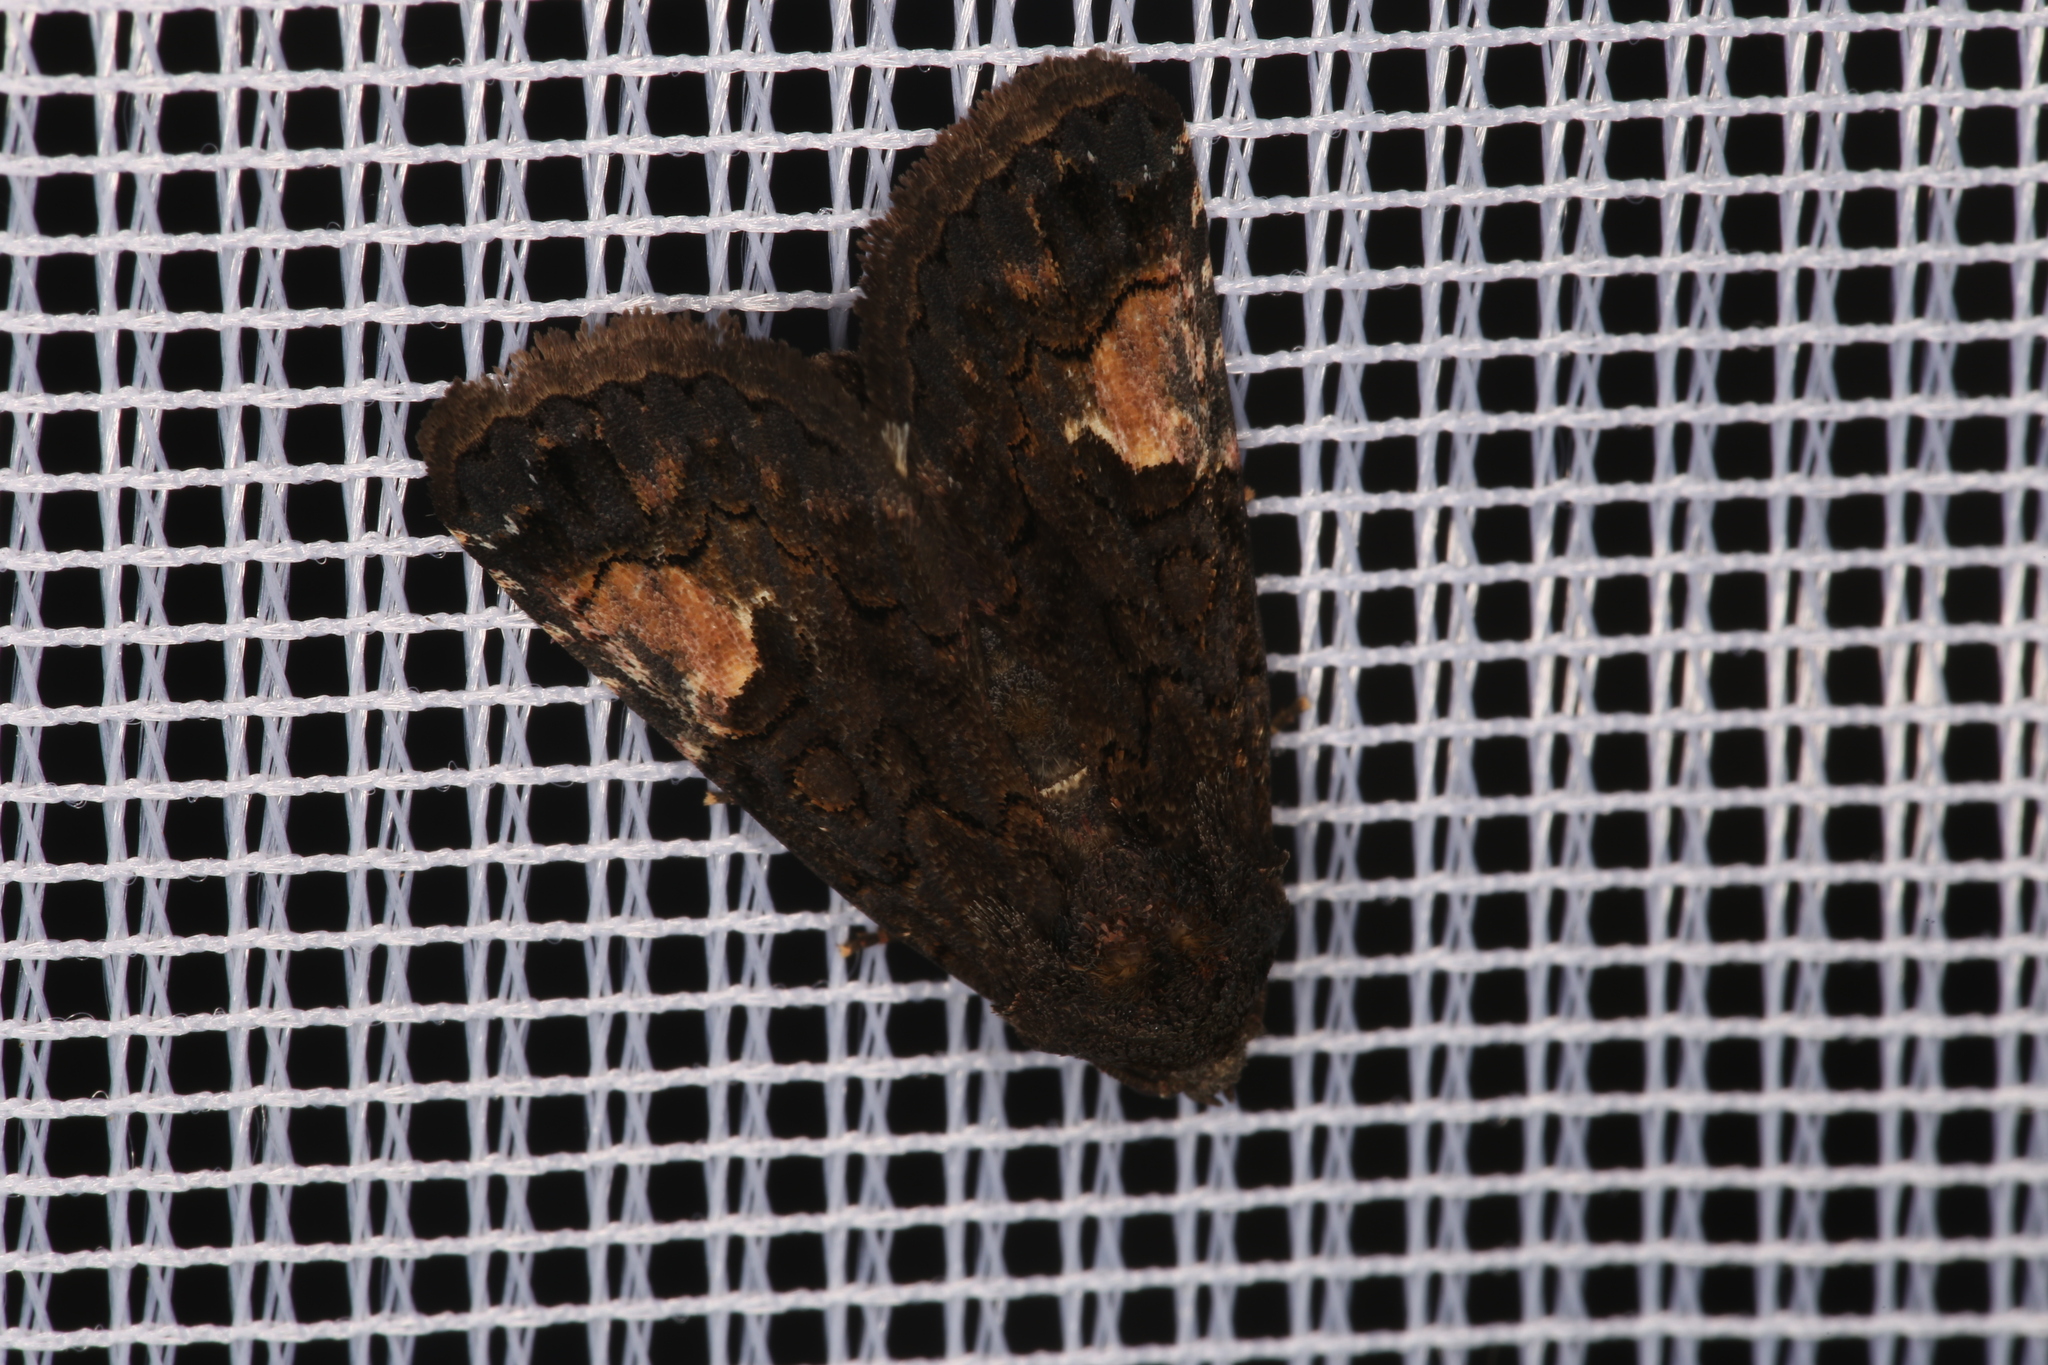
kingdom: Animalia
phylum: Arthropoda
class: Insecta
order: Lepidoptera
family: Noctuidae
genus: Aedia
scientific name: Aedia funesta
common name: The druid
